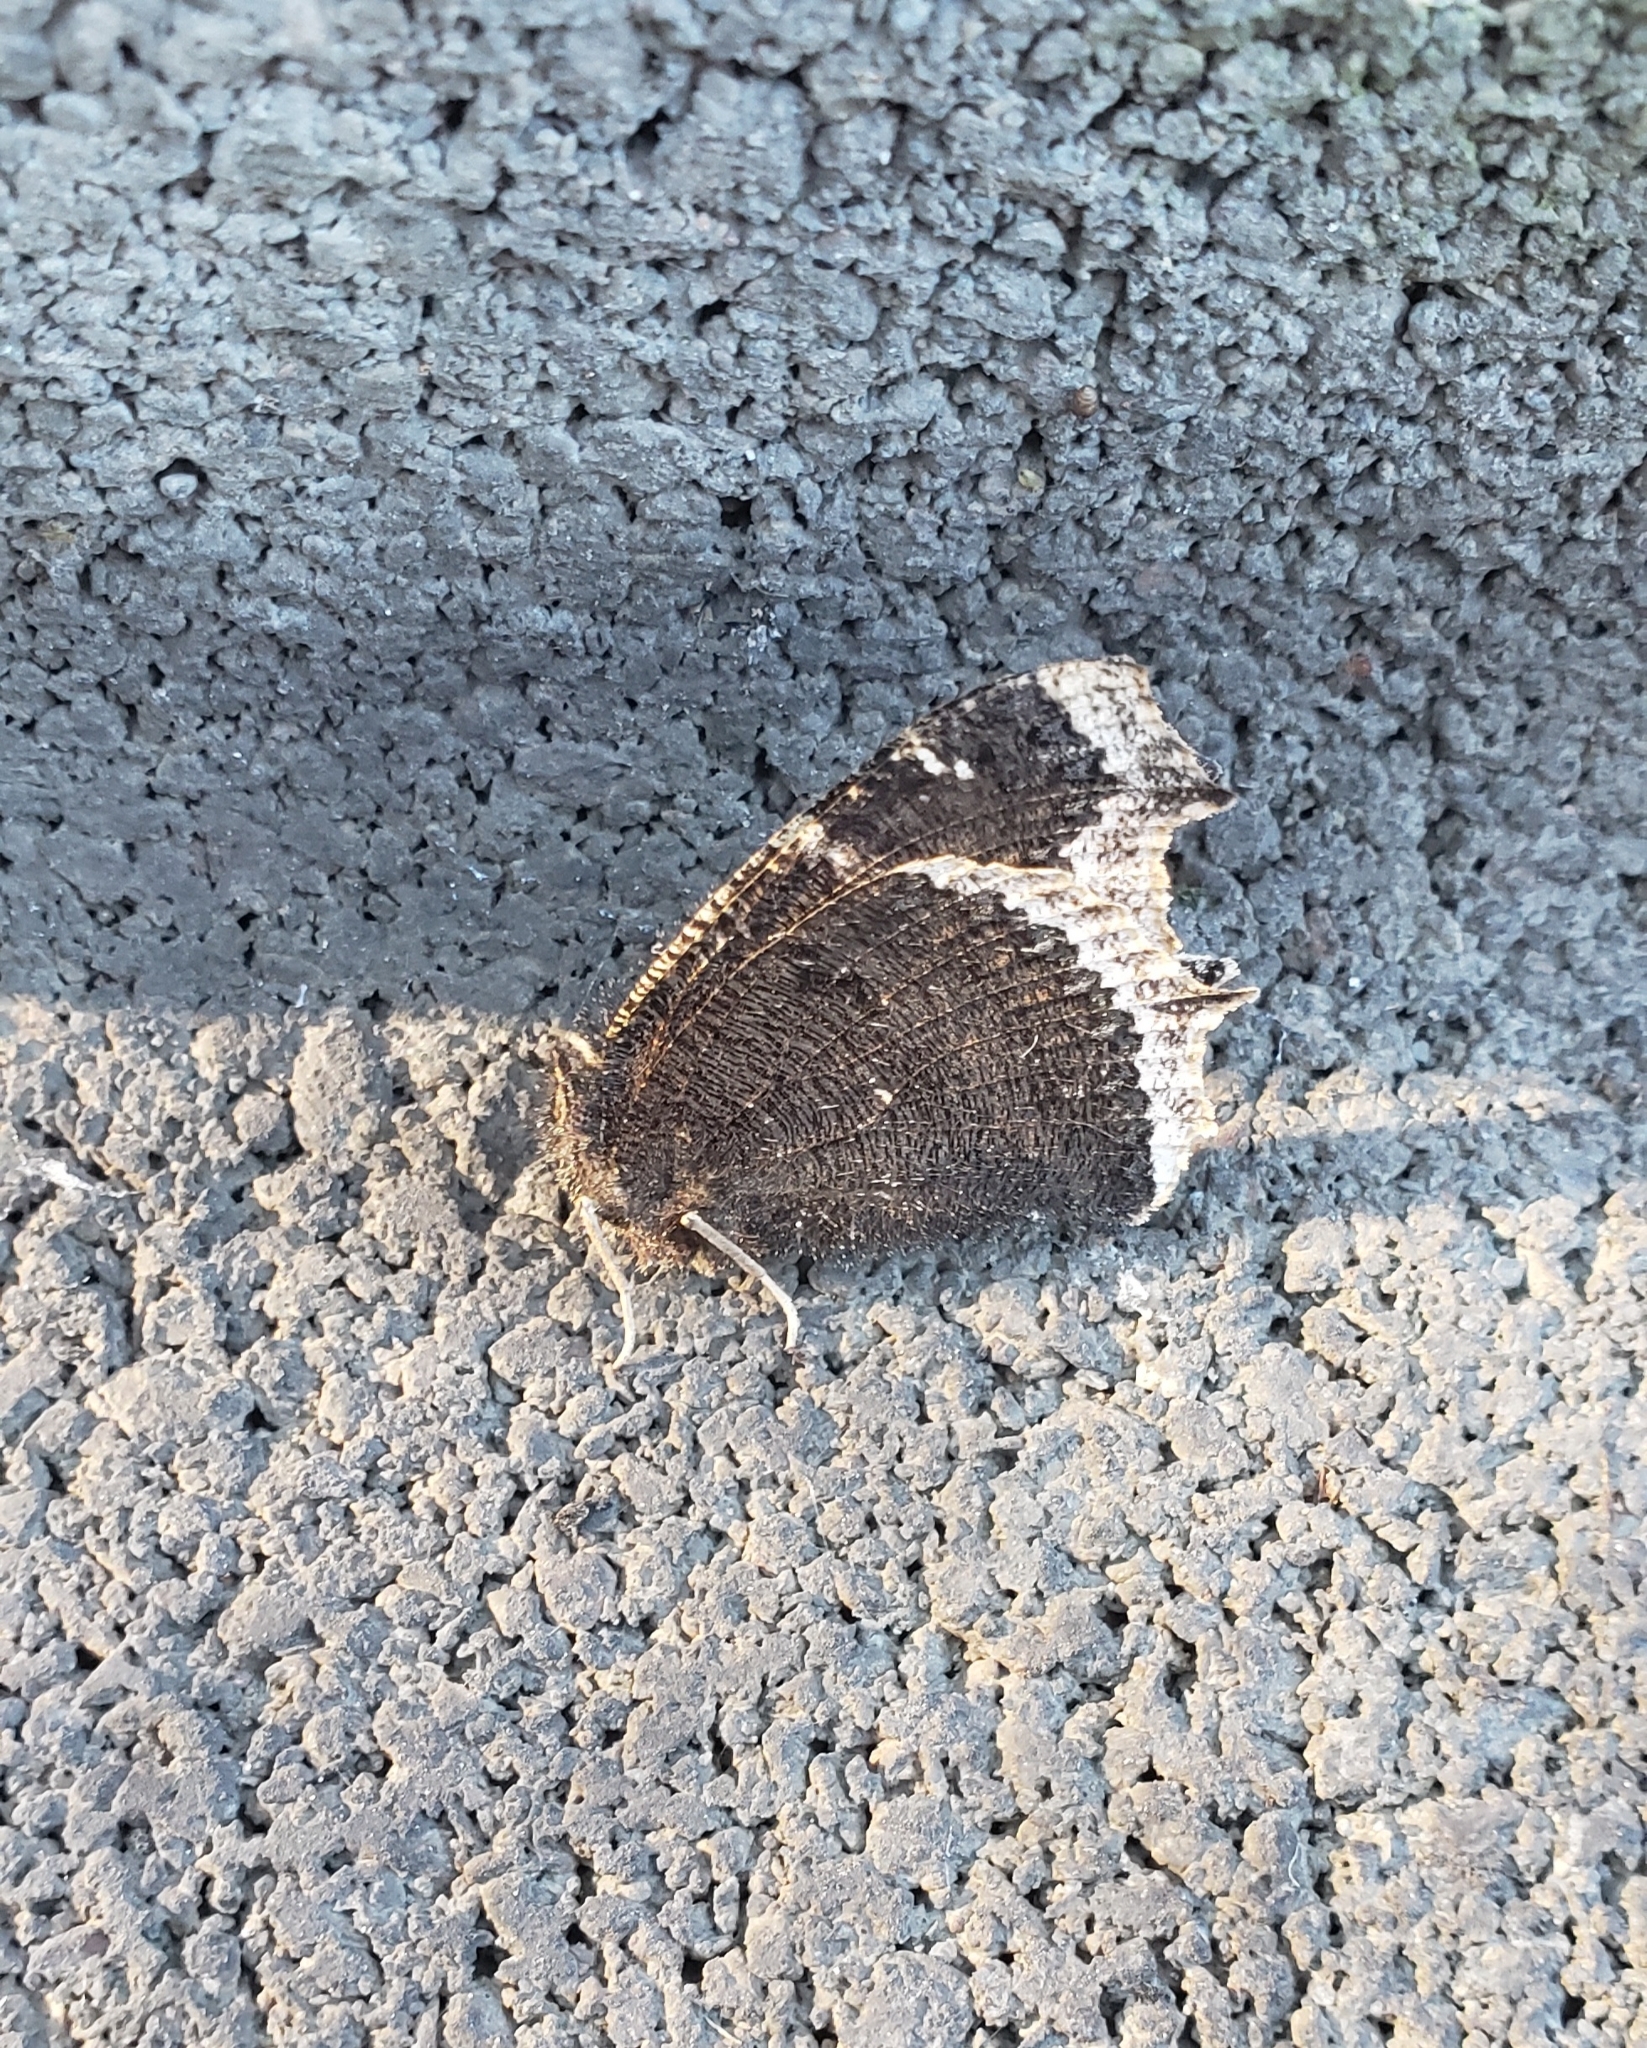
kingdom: Animalia
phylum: Arthropoda
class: Insecta
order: Lepidoptera
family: Nymphalidae
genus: Nymphalis
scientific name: Nymphalis antiopa
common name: Camberwell beauty
